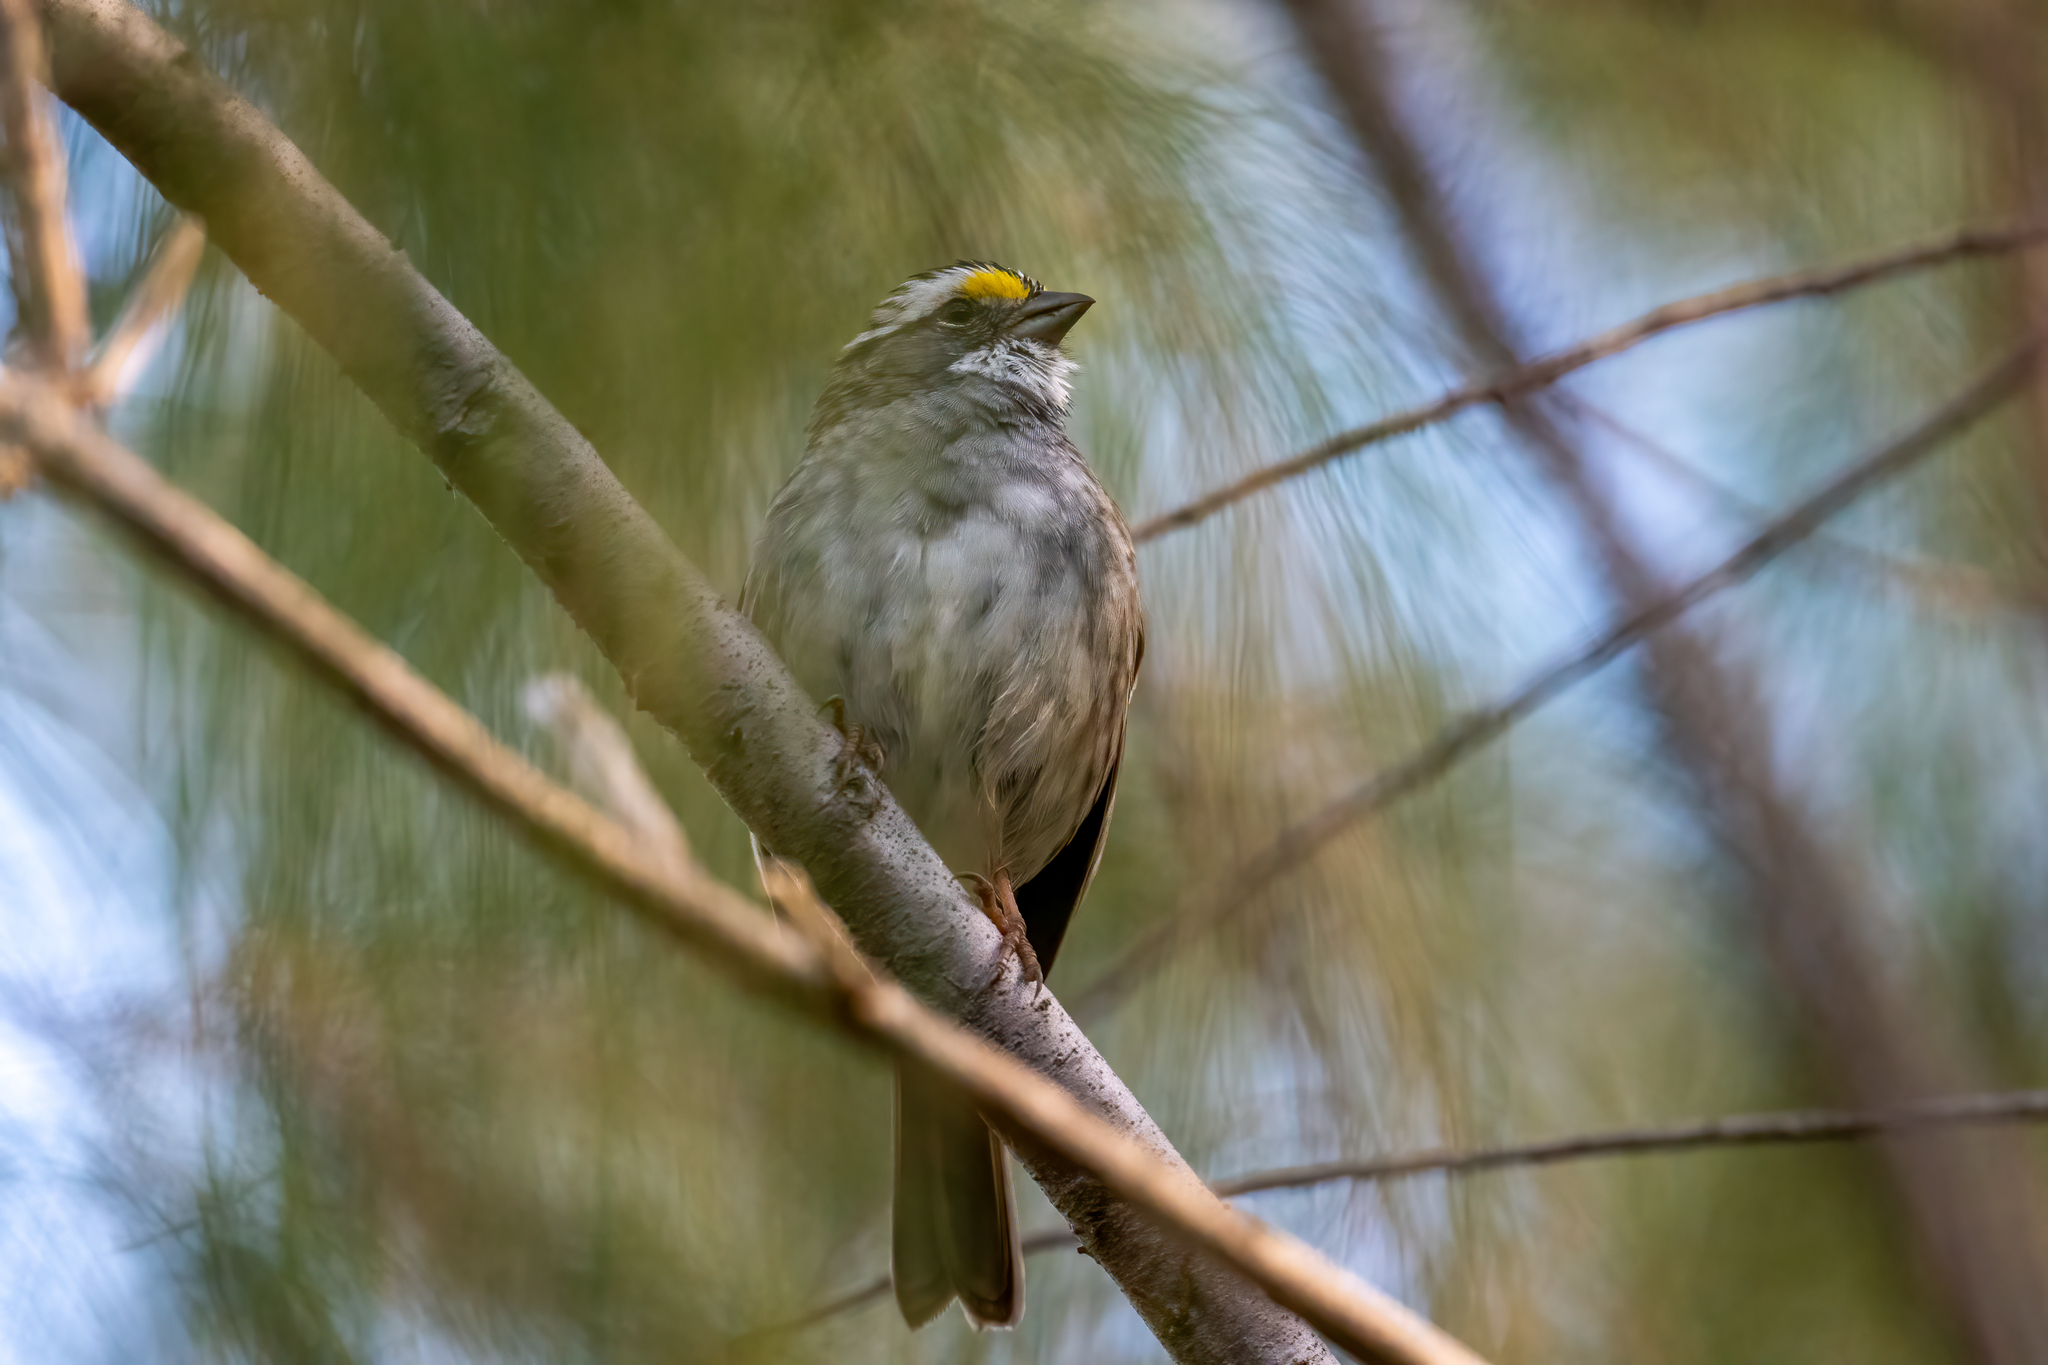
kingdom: Animalia
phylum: Chordata
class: Aves
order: Passeriformes
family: Passerellidae
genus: Zonotrichia
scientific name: Zonotrichia albicollis
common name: White-throated sparrow
